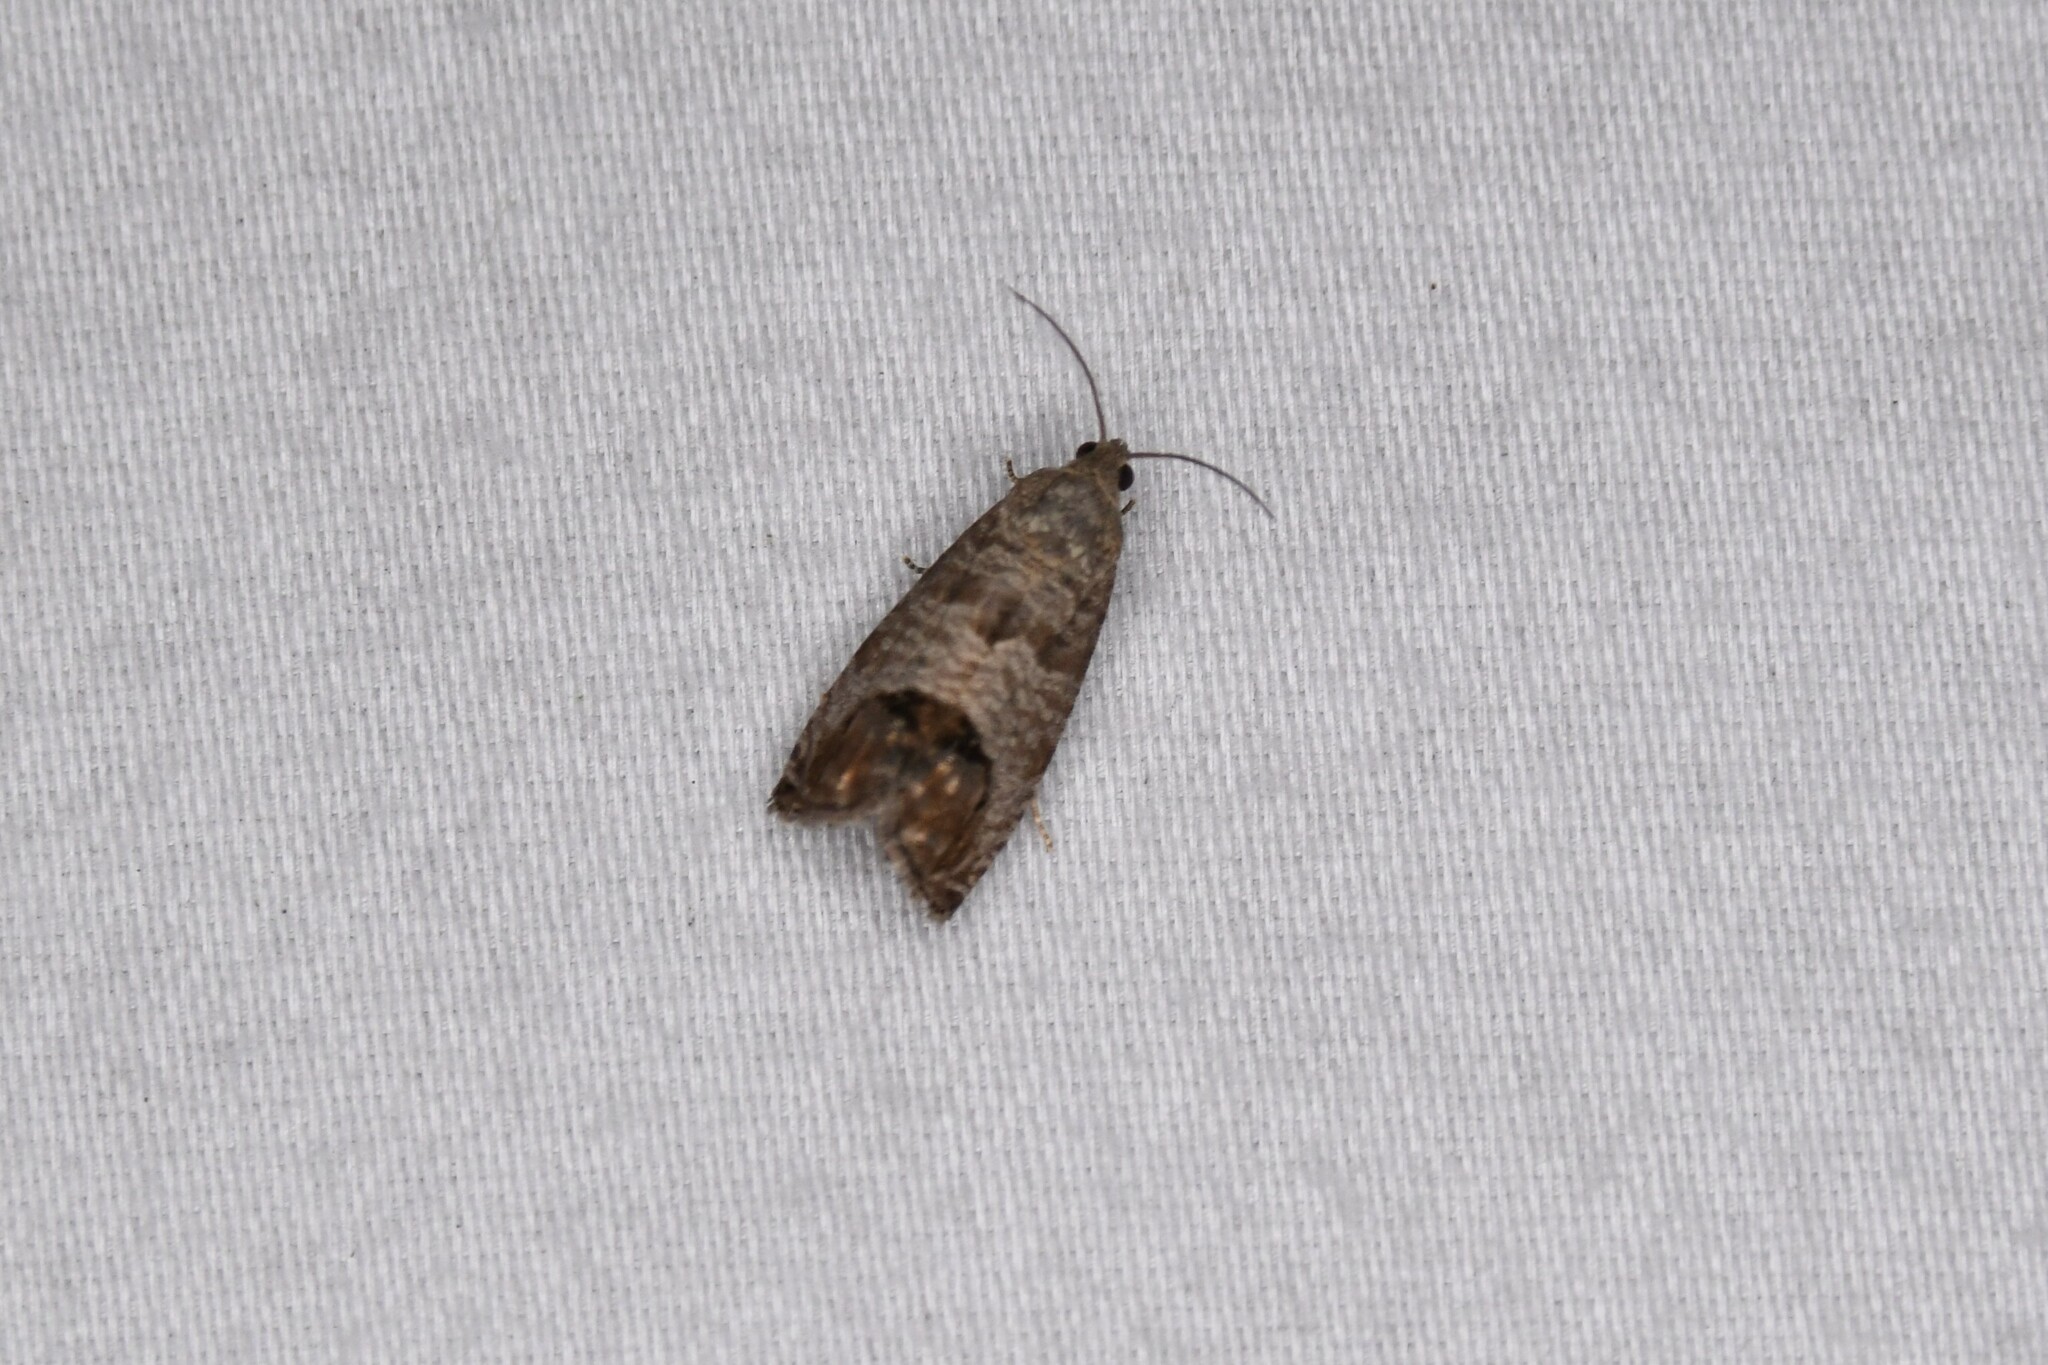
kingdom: Animalia
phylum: Arthropoda
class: Insecta
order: Lepidoptera
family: Tortricidae
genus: Cydia
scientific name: Cydia pomonella
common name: Codling moth
